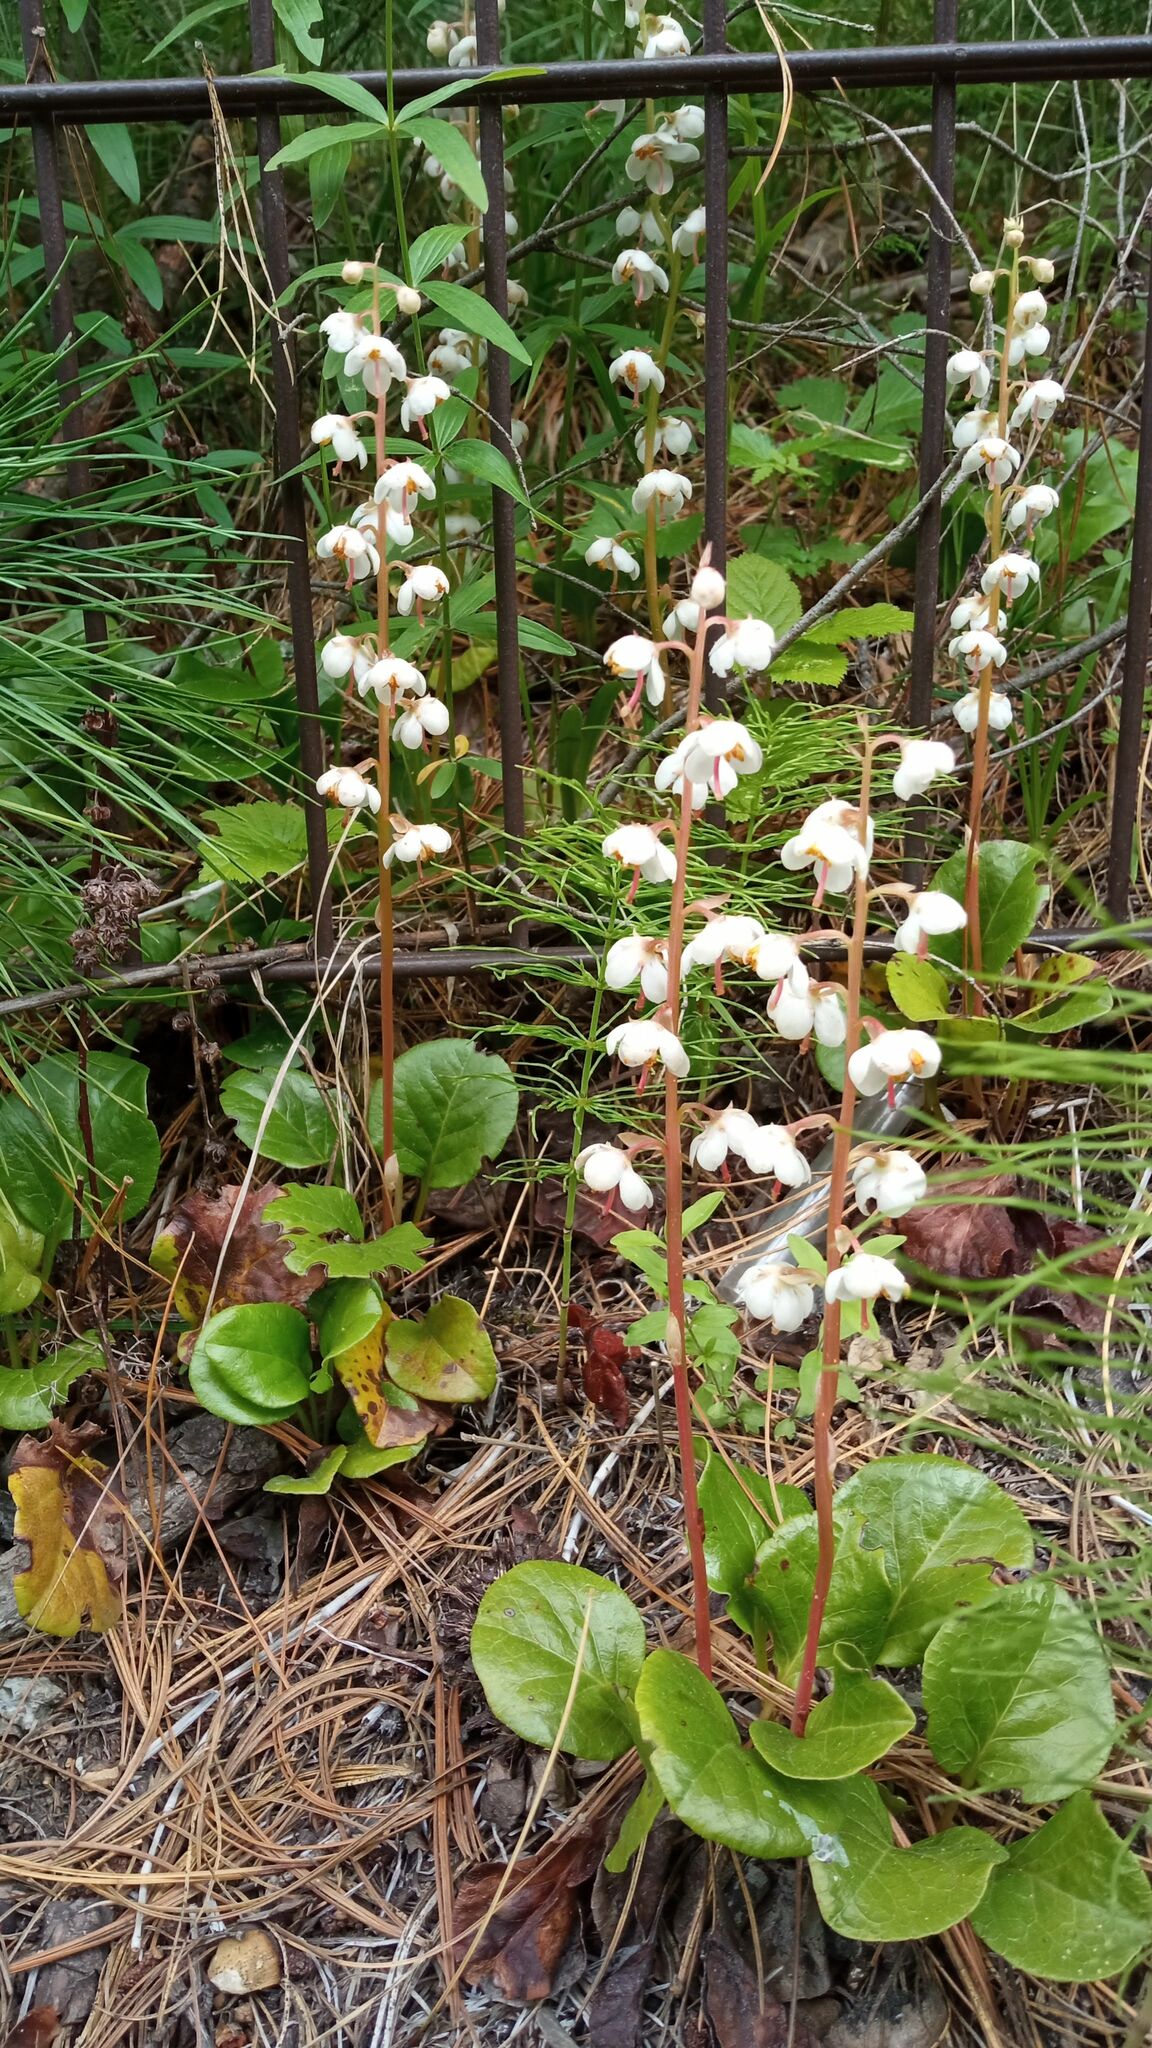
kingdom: Plantae
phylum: Tracheophyta
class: Magnoliopsida
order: Ericales
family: Ericaceae
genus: Pyrola
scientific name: Pyrola rotundifolia
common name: Round-leaved wintergreen
